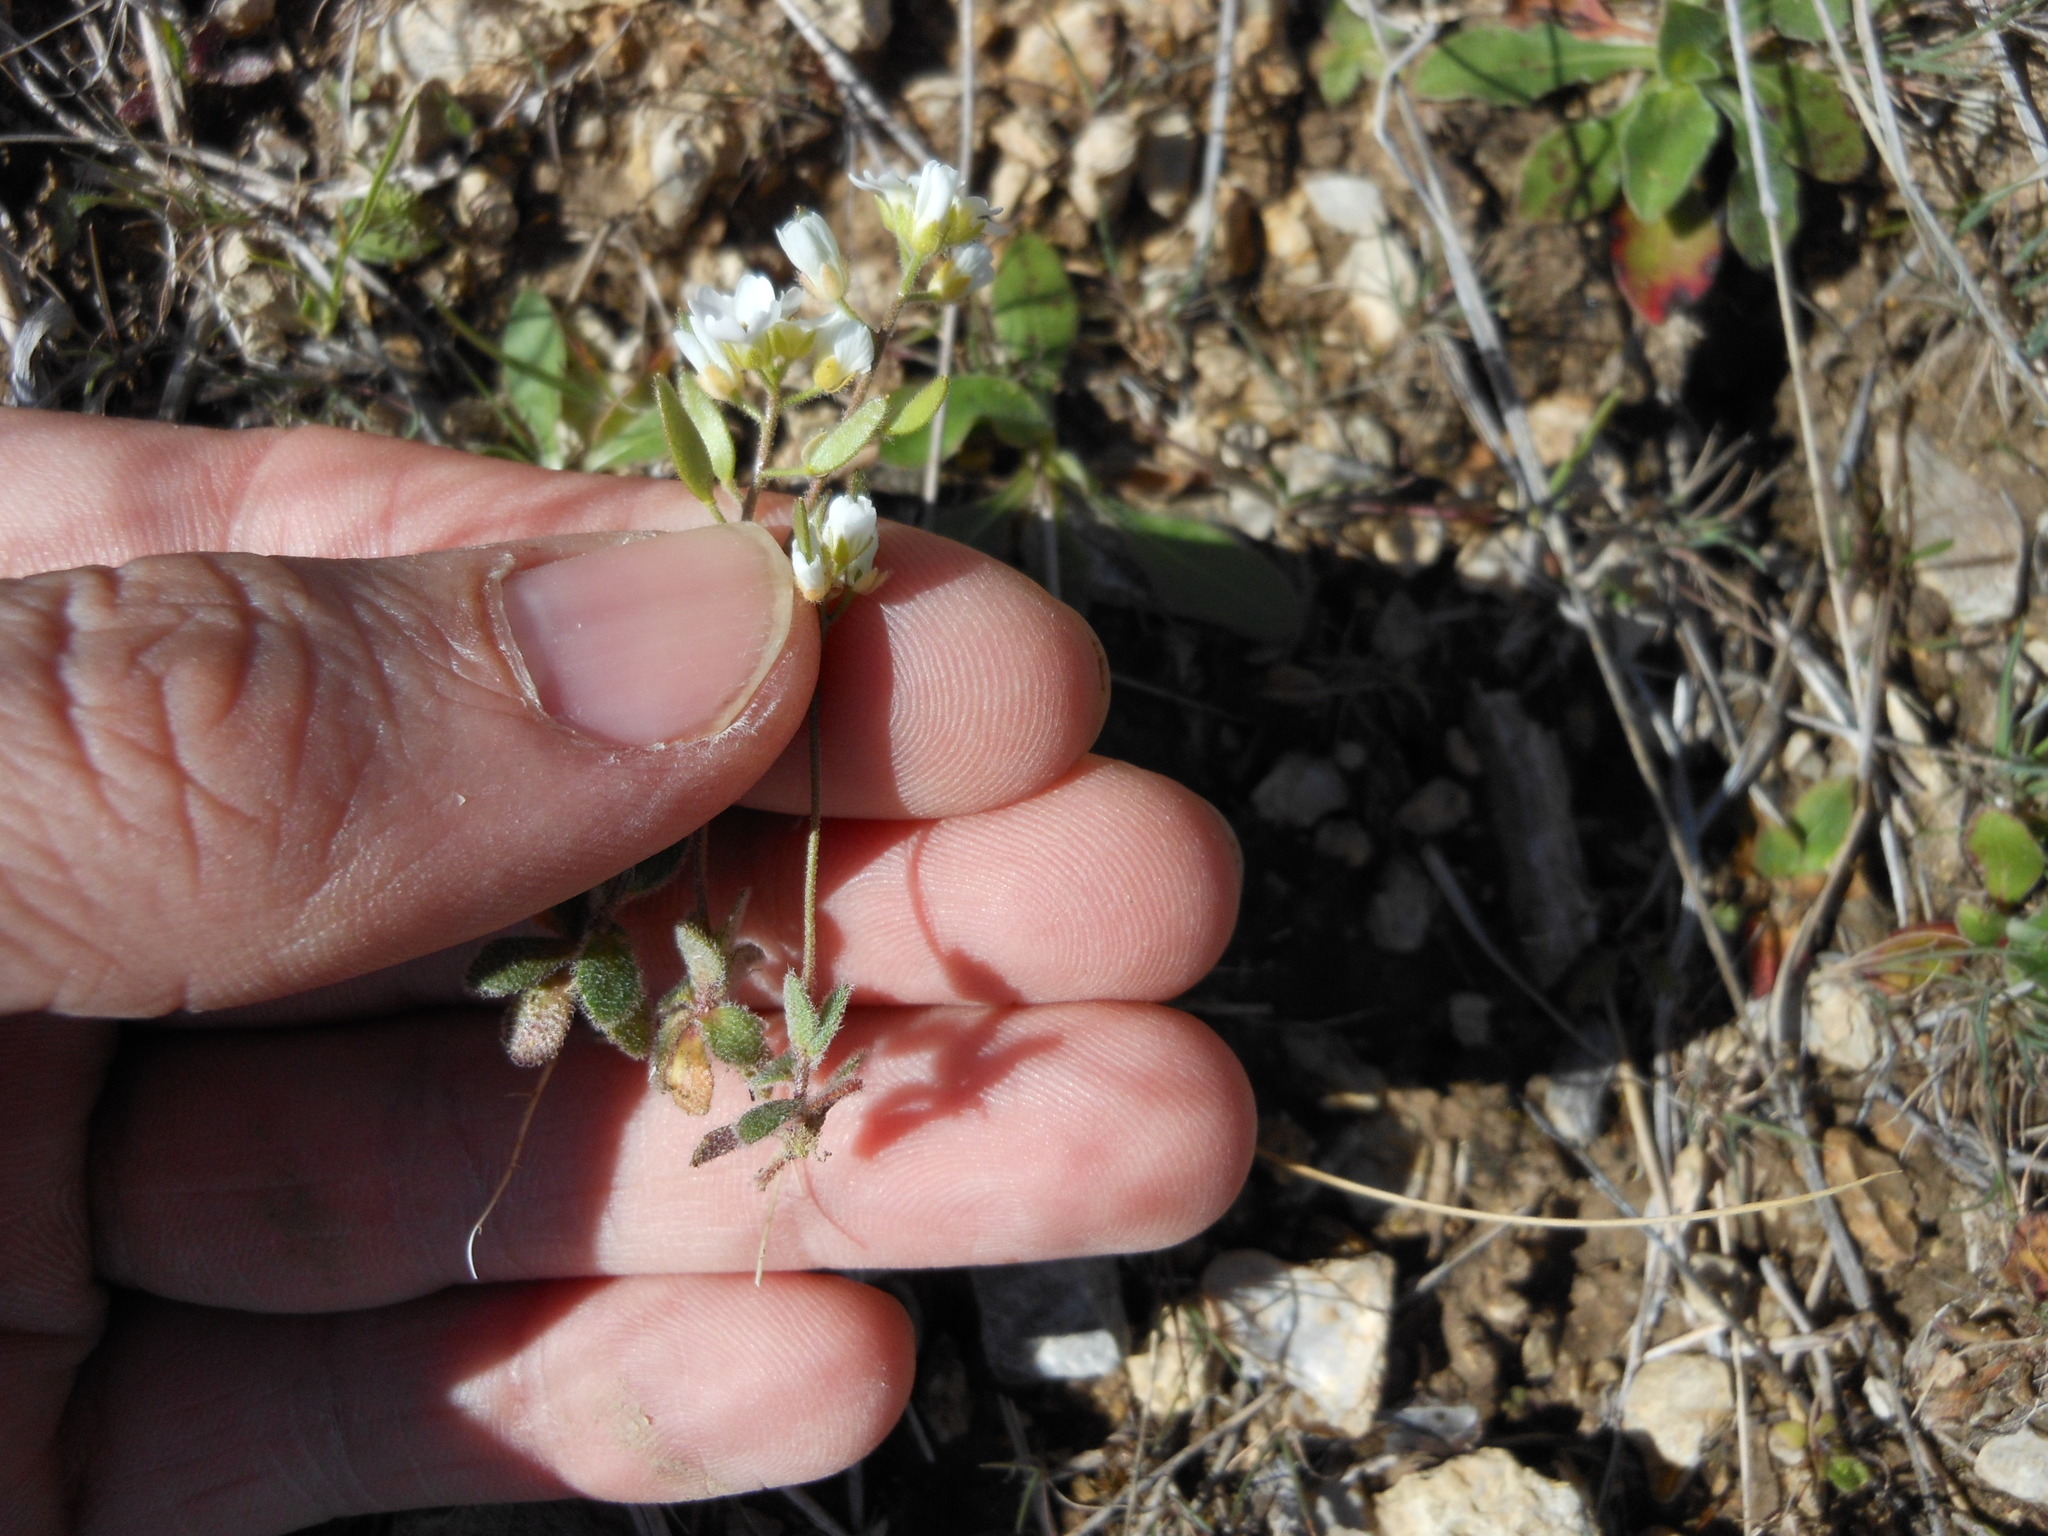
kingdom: Plantae
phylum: Tracheophyta
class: Magnoliopsida
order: Brassicales
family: Brassicaceae
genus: Tomostima
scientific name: Tomostima cuneifolia
